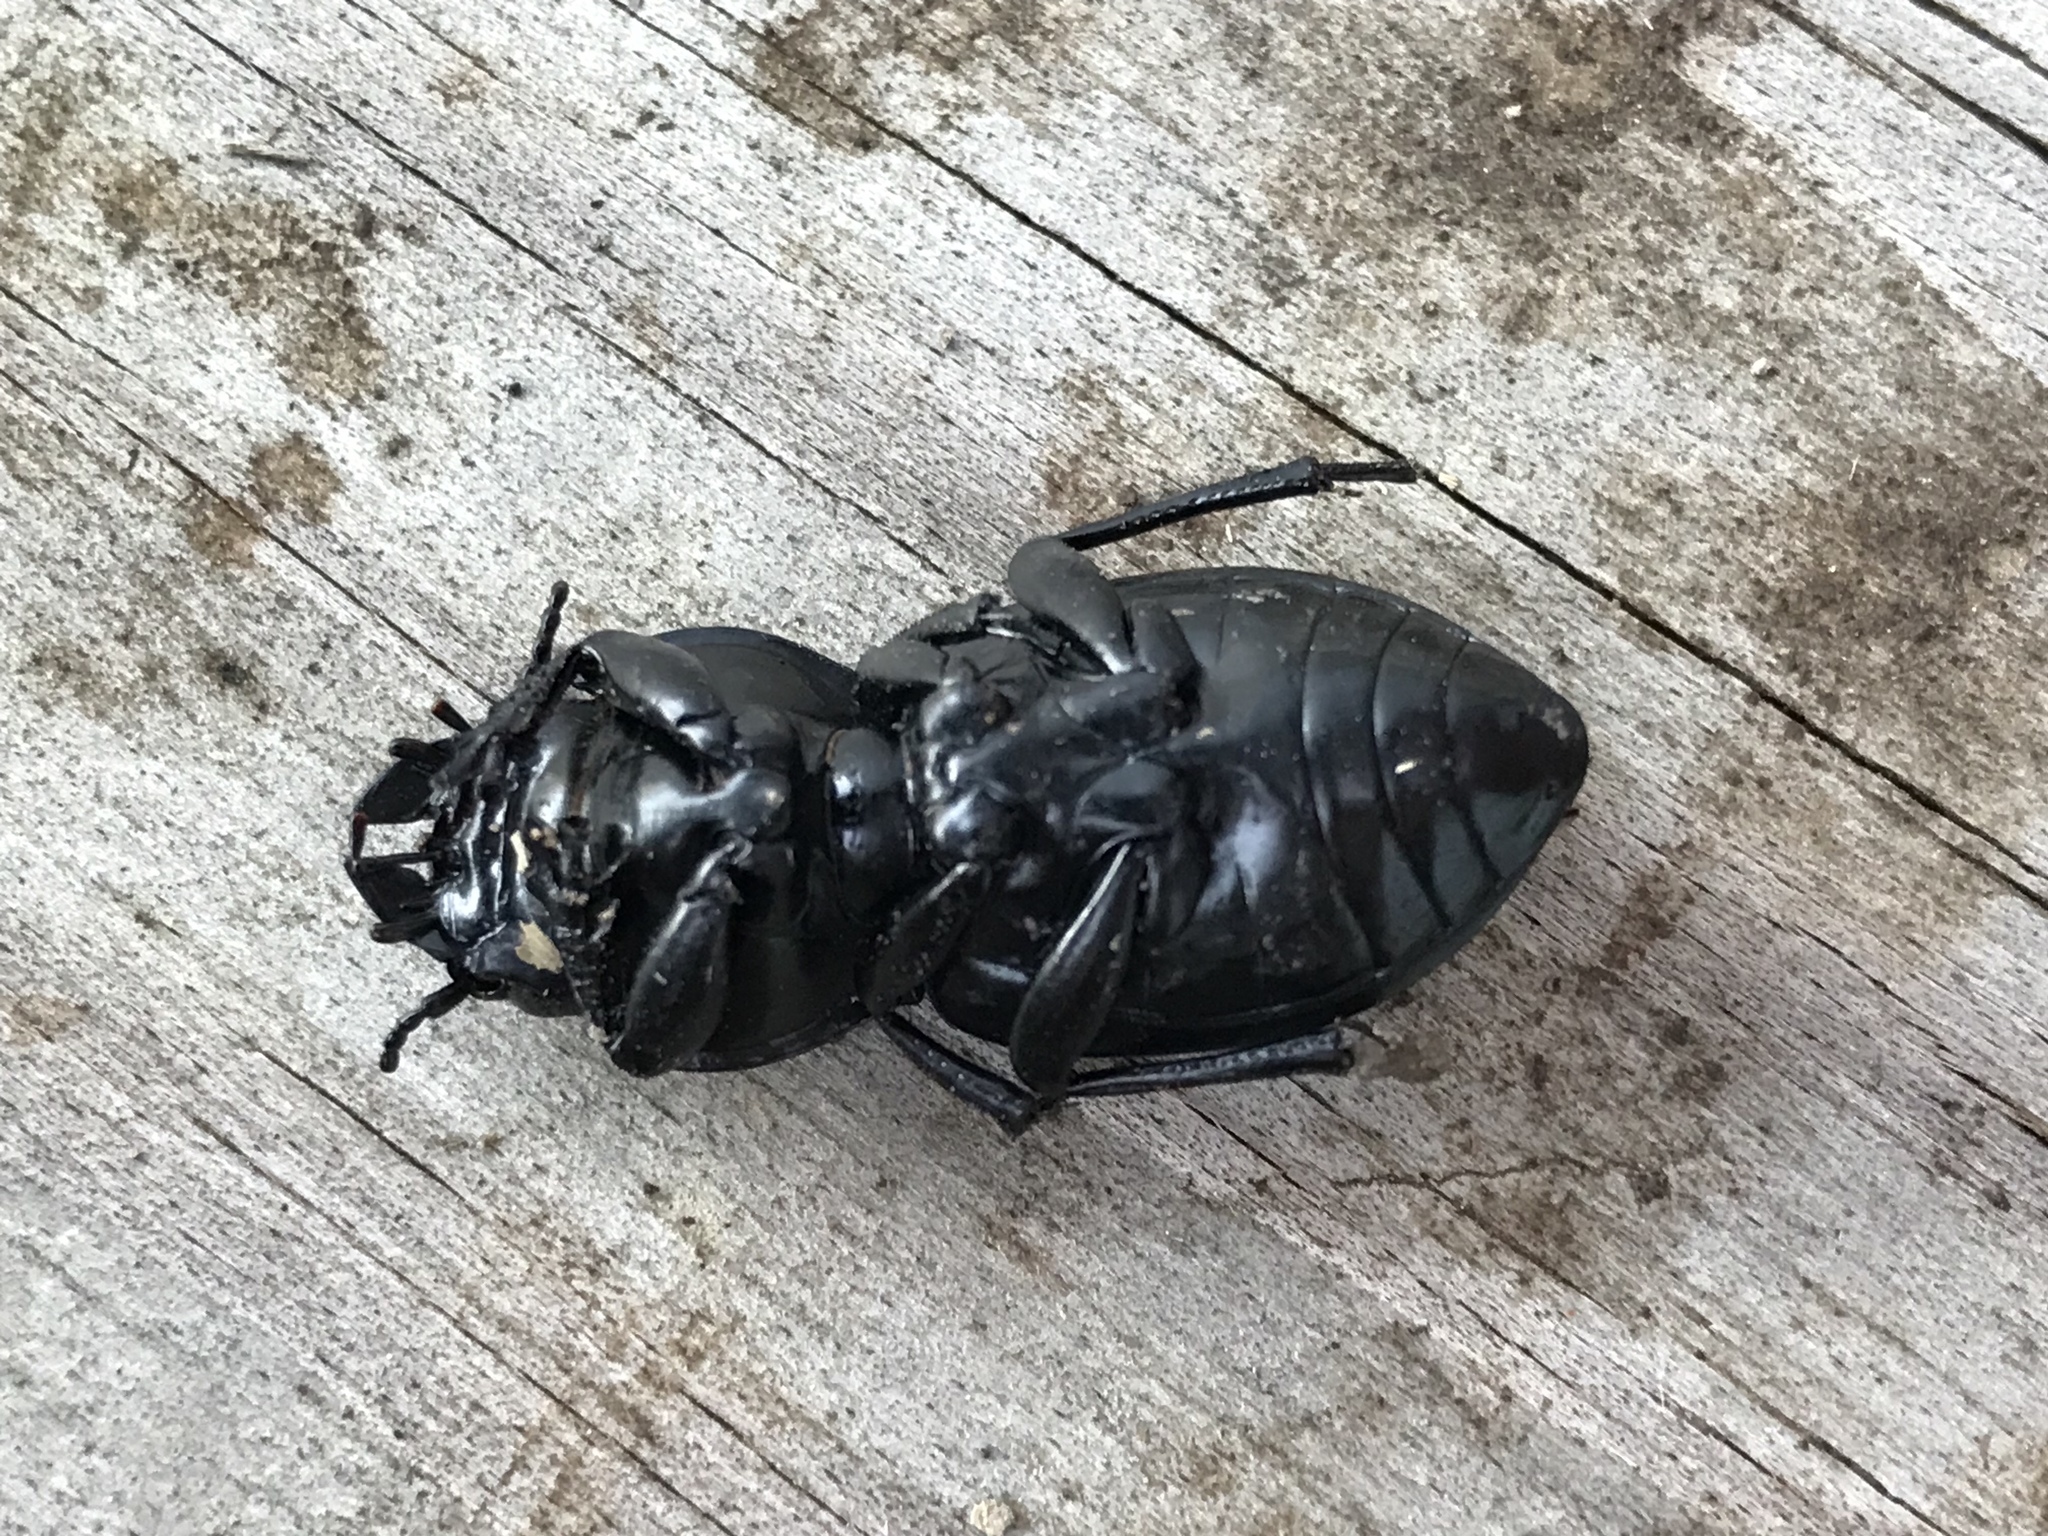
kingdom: Animalia
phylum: Arthropoda
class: Insecta
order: Coleoptera
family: Carabidae
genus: Pasimachus
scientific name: Pasimachus californicus
